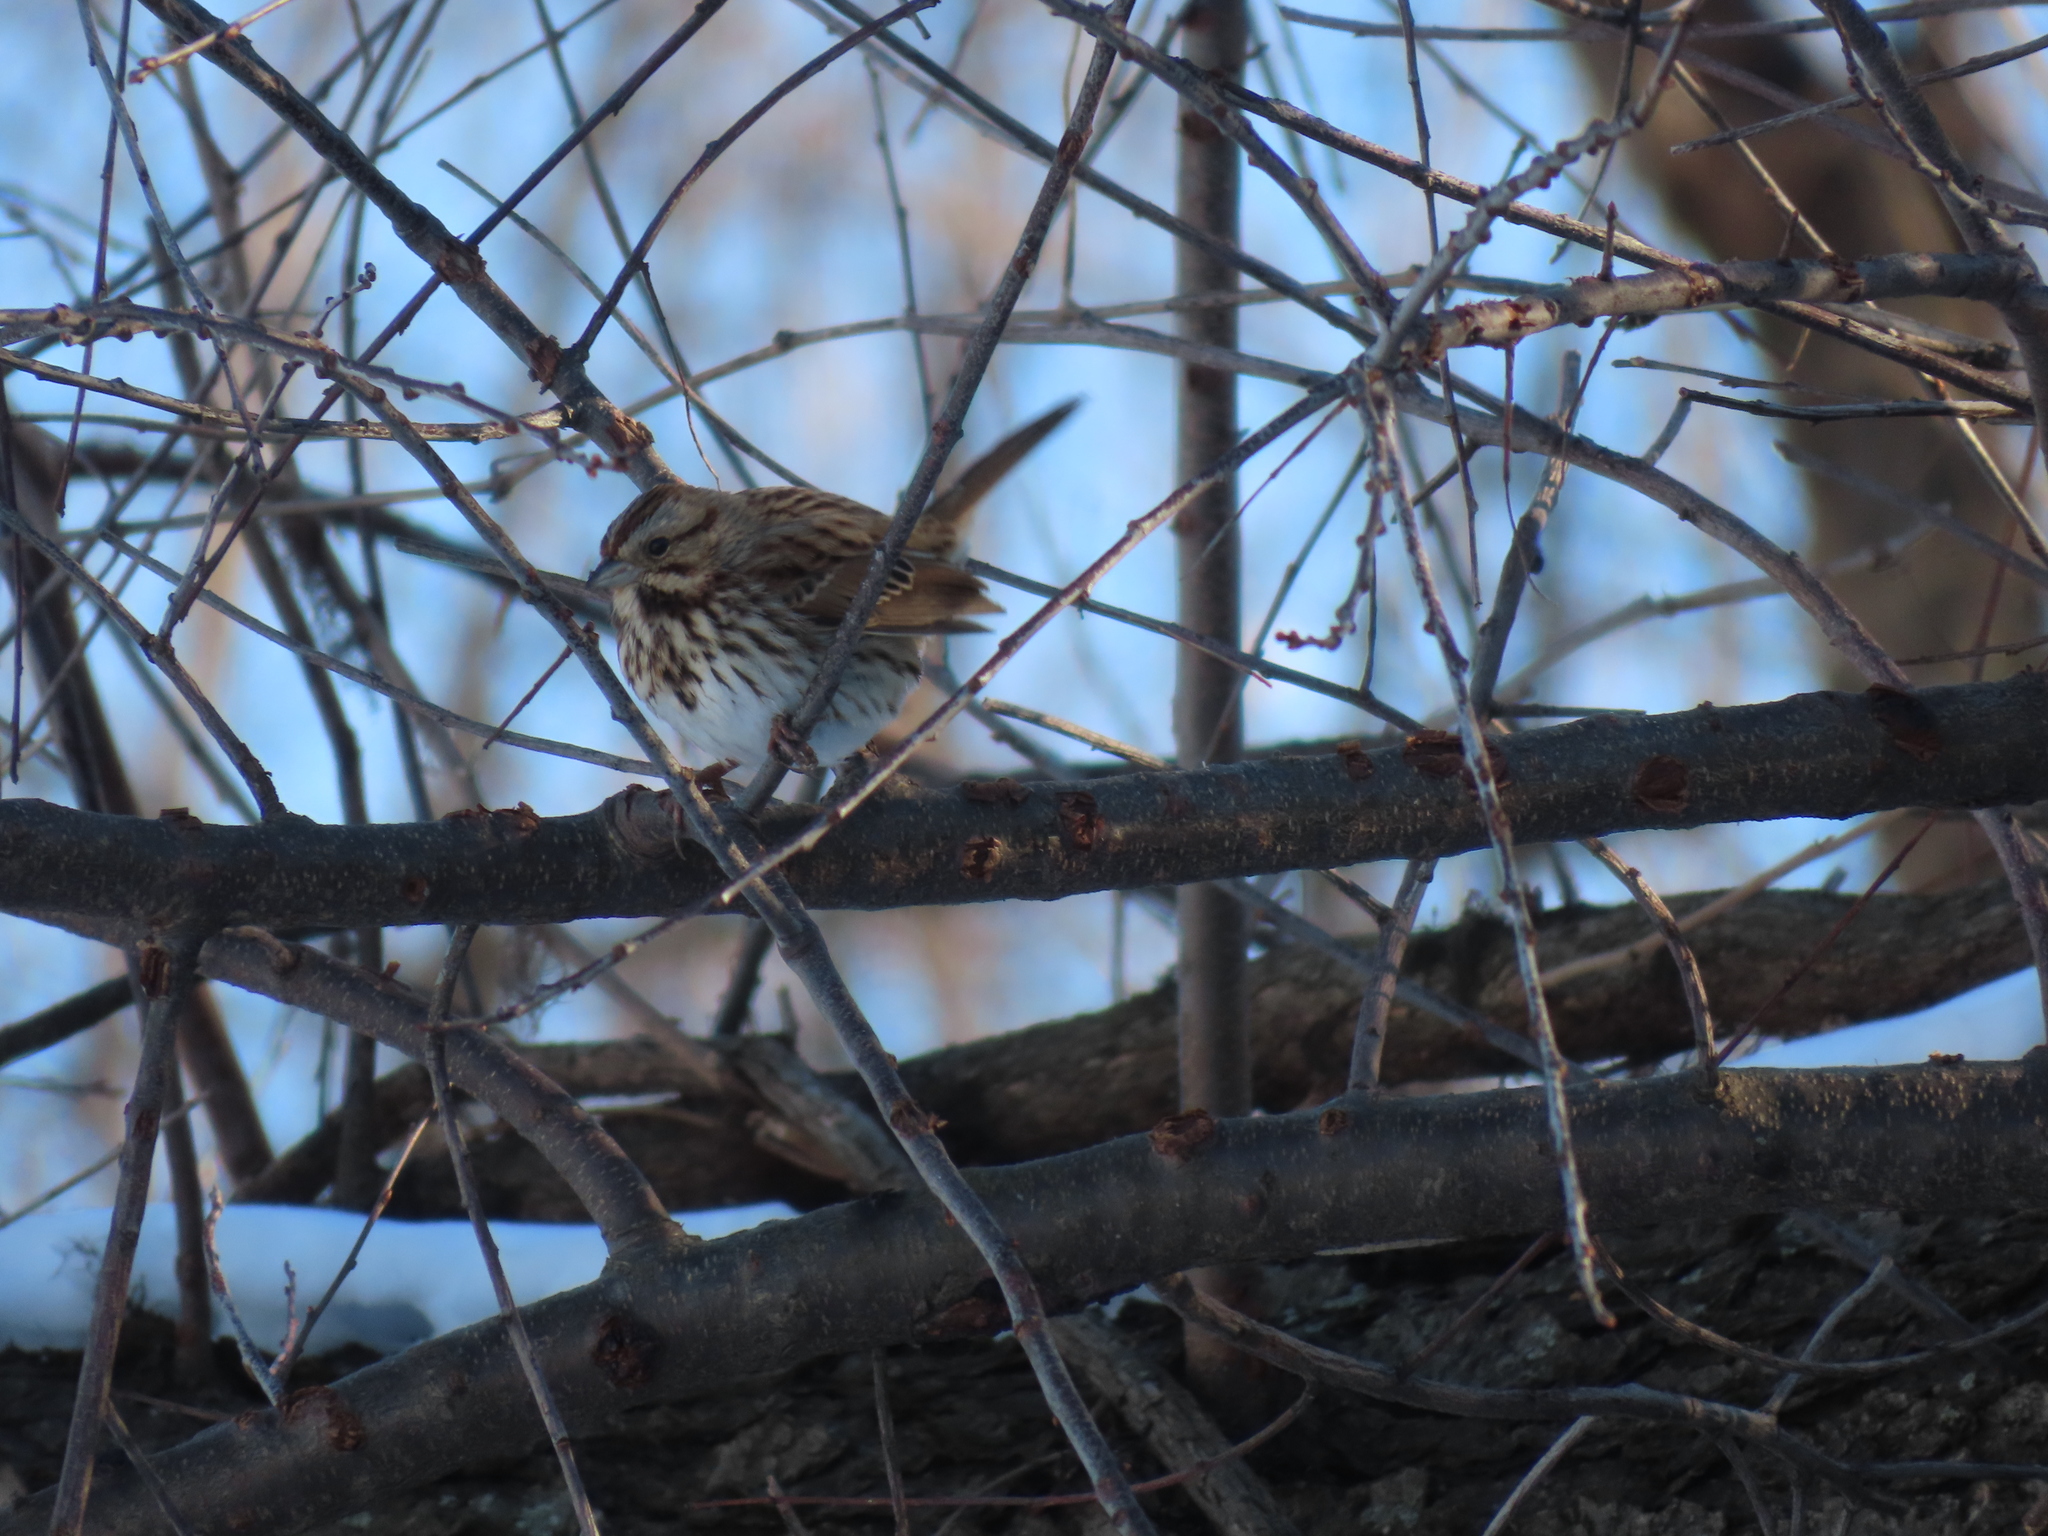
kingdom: Animalia
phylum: Chordata
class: Aves
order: Passeriformes
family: Passerellidae
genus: Melospiza
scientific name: Melospiza melodia
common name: Song sparrow
